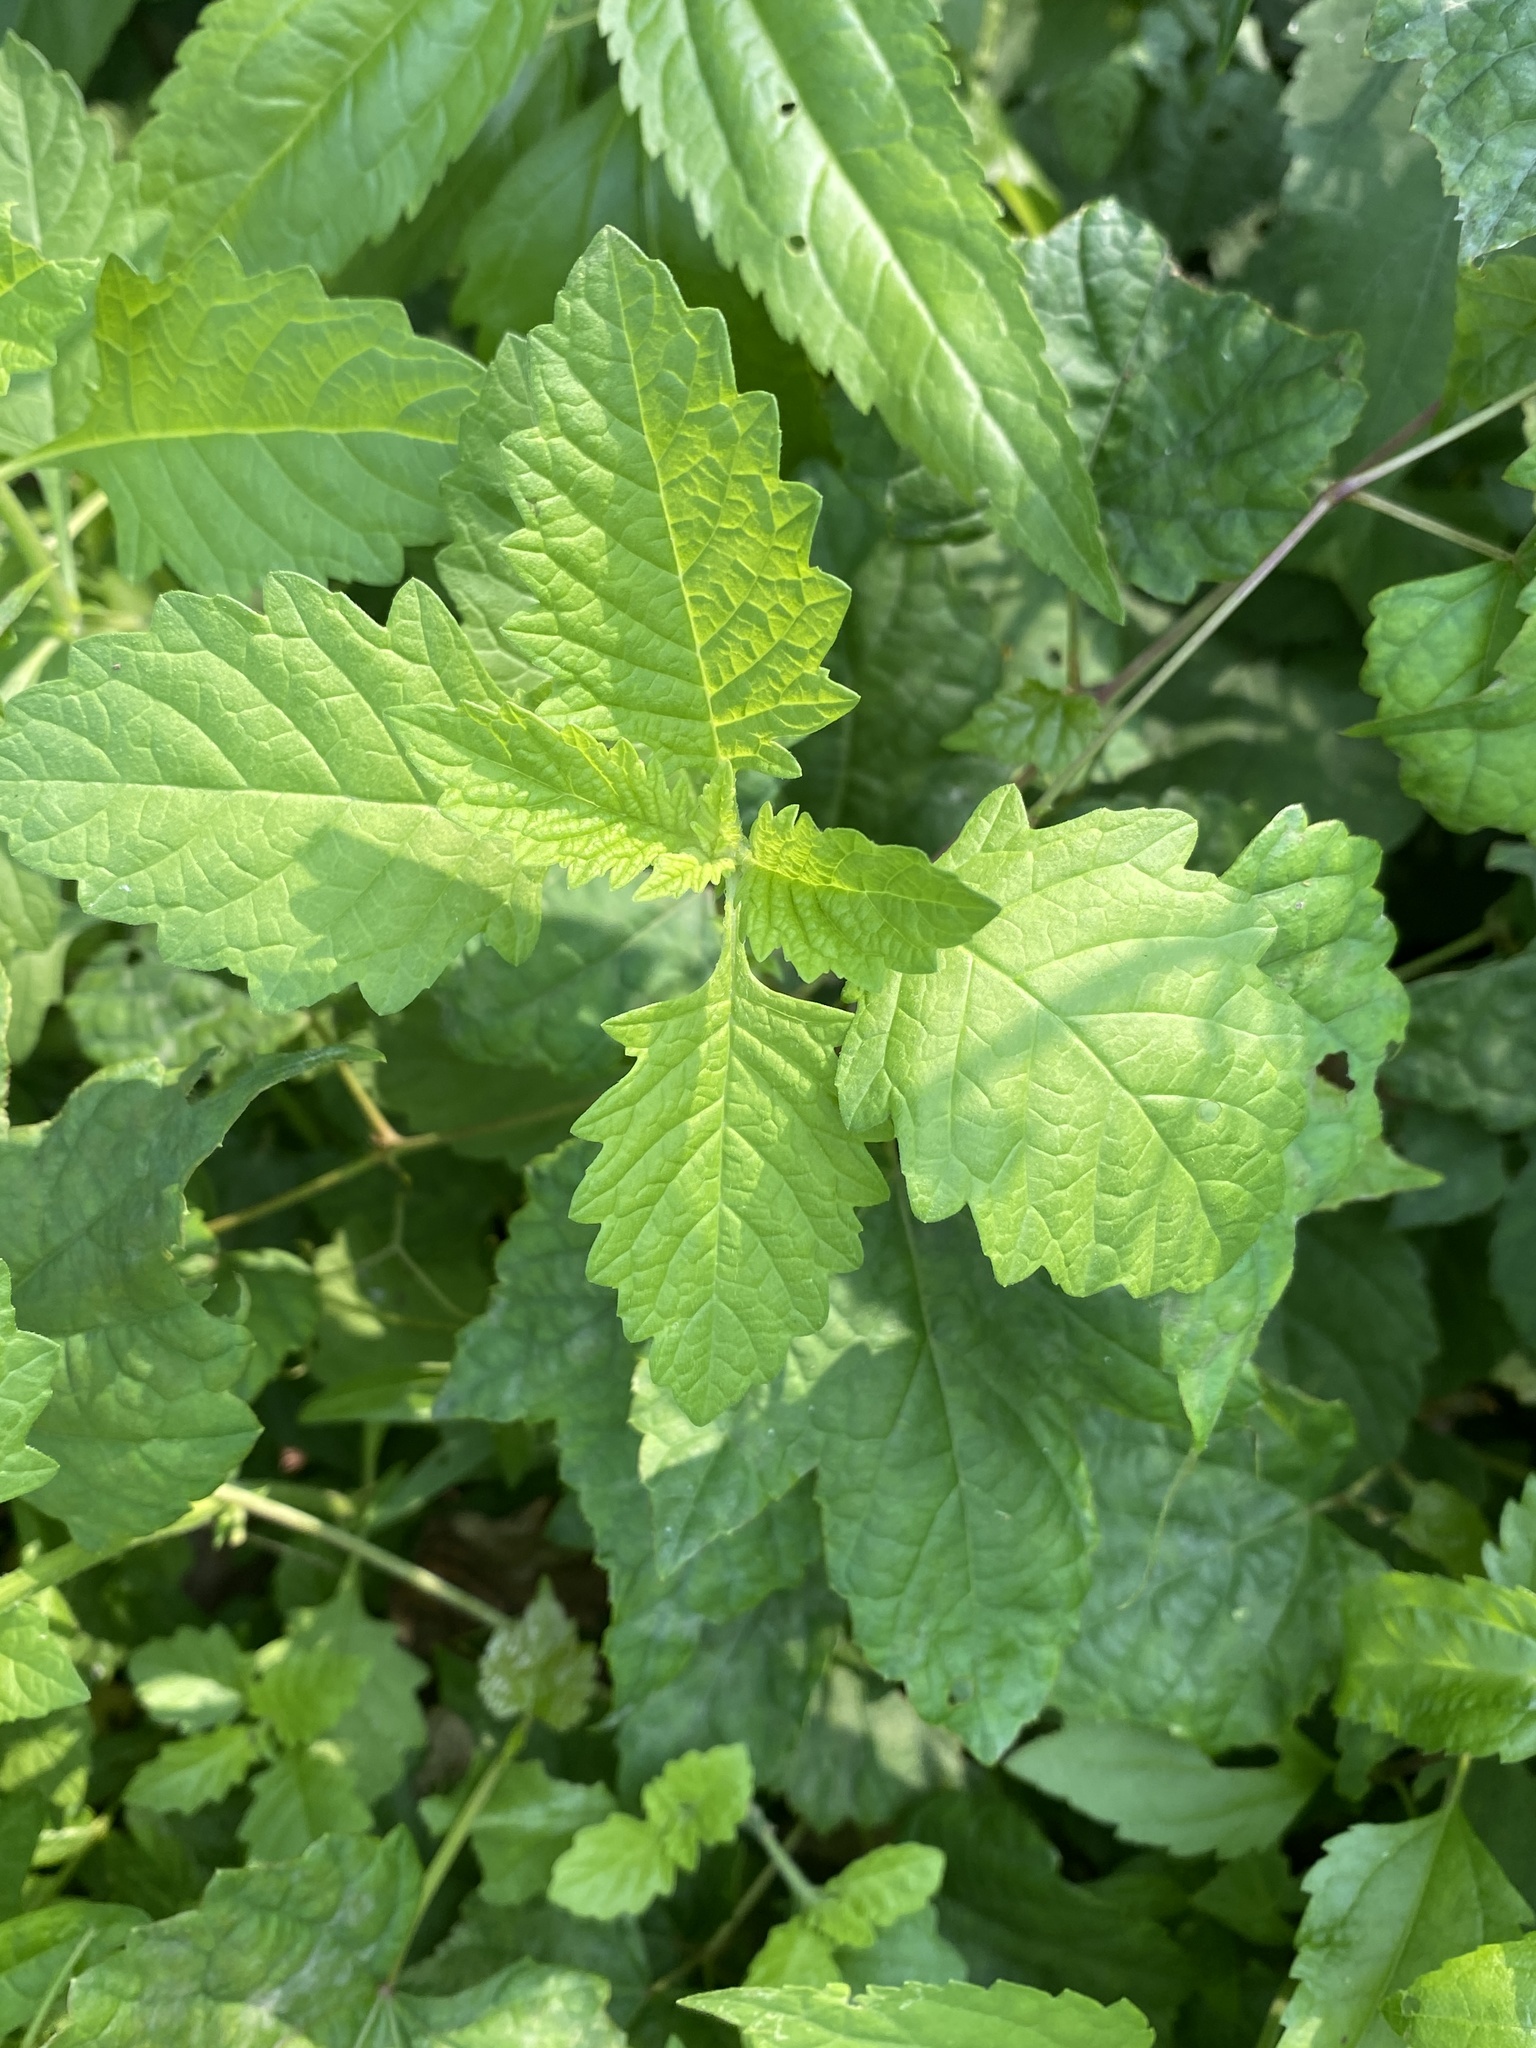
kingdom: Plantae
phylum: Tracheophyta
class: Magnoliopsida
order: Lamiales
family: Lamiaceae
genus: Lycopus
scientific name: Lycopus europaeus
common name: European bugleweed
